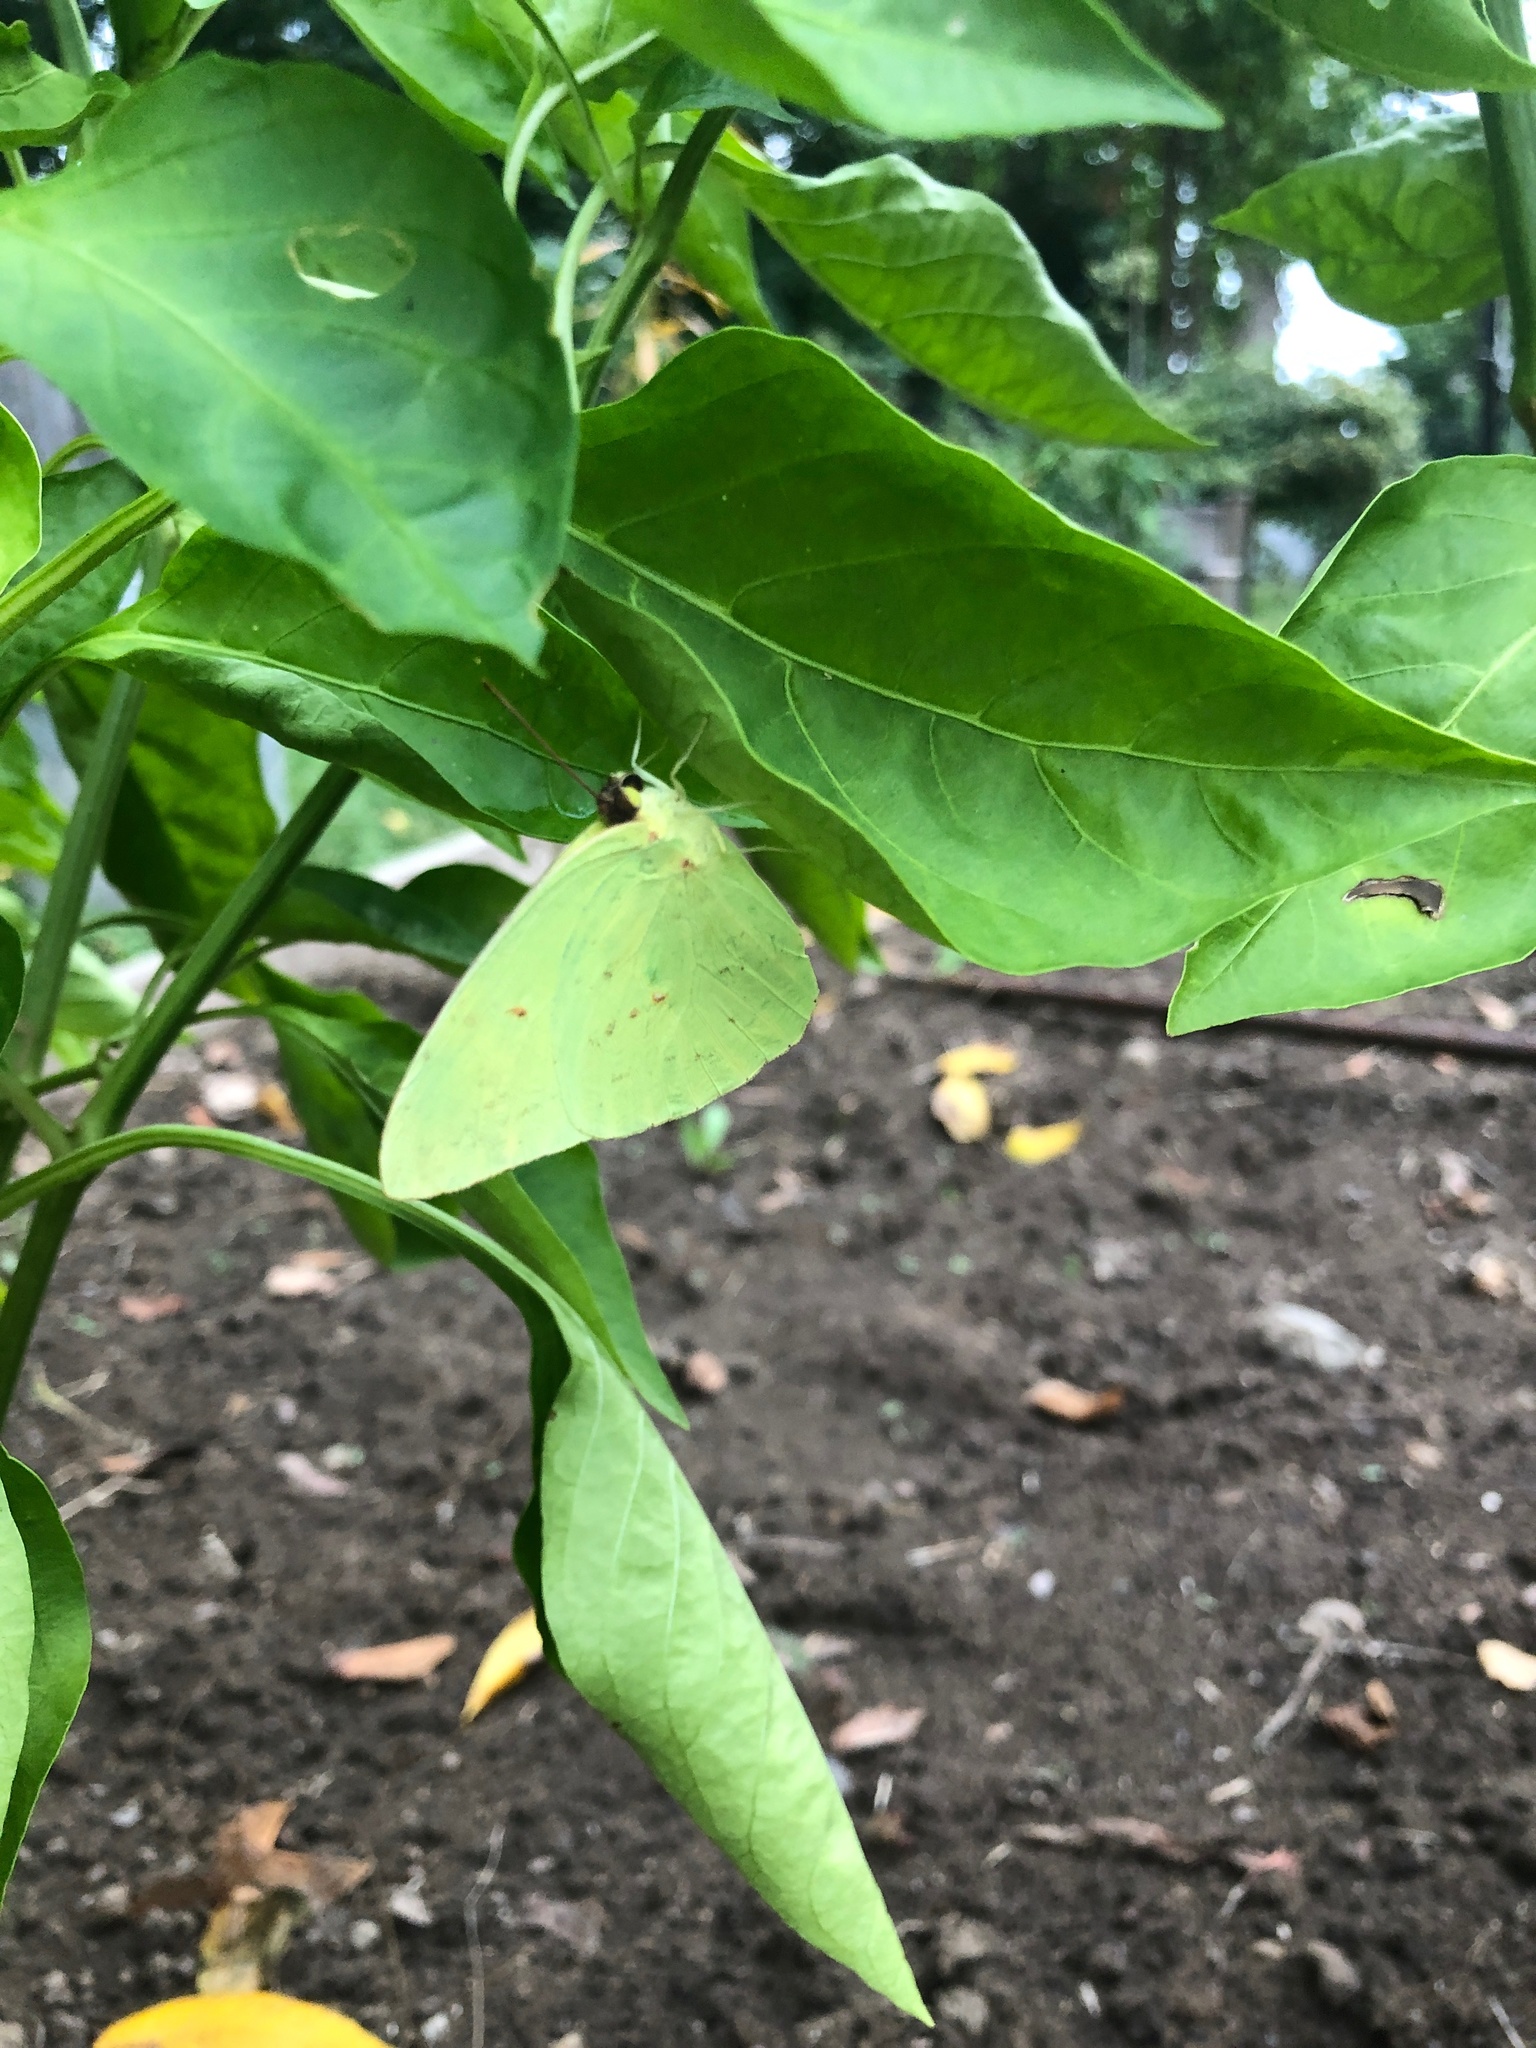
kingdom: Animalia
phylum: Arthropoda
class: Insecta
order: Lepidoptera
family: Pieridae
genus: Phoebis
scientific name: Phoebis sennae
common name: Cloudless sulphur
